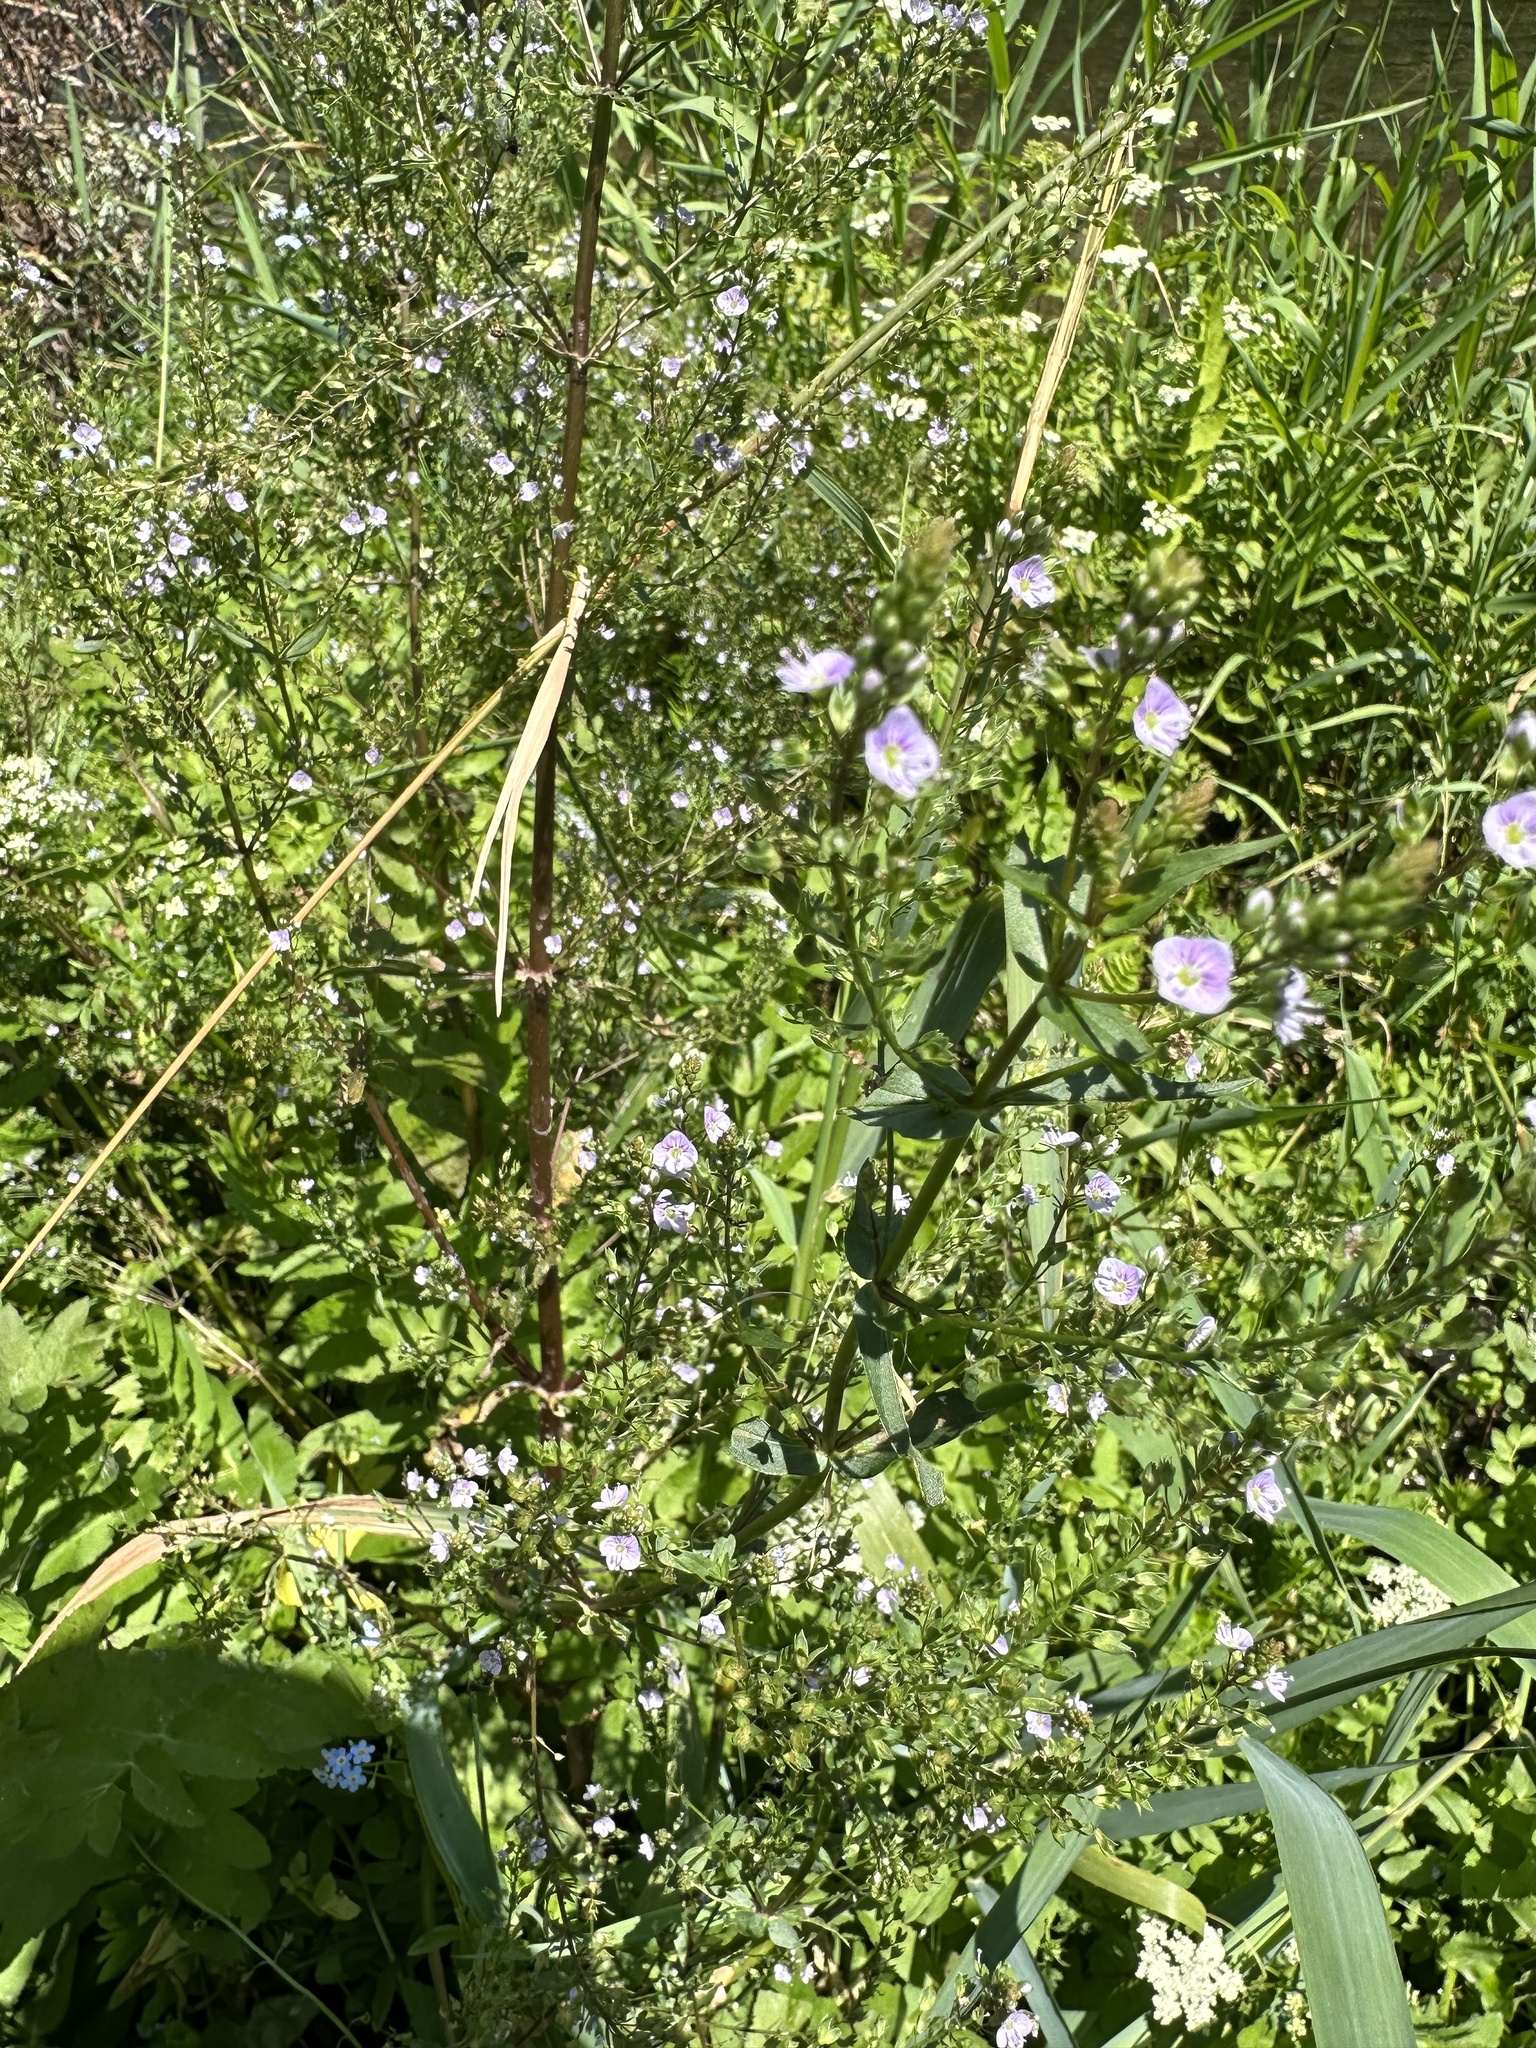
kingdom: Plantae
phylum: Tracheophyta
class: Magnoliopsida
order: Lamiales
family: Plantaginaceae
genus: Veronica
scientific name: Veronica anagallis-aquatica
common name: Water speedwell
